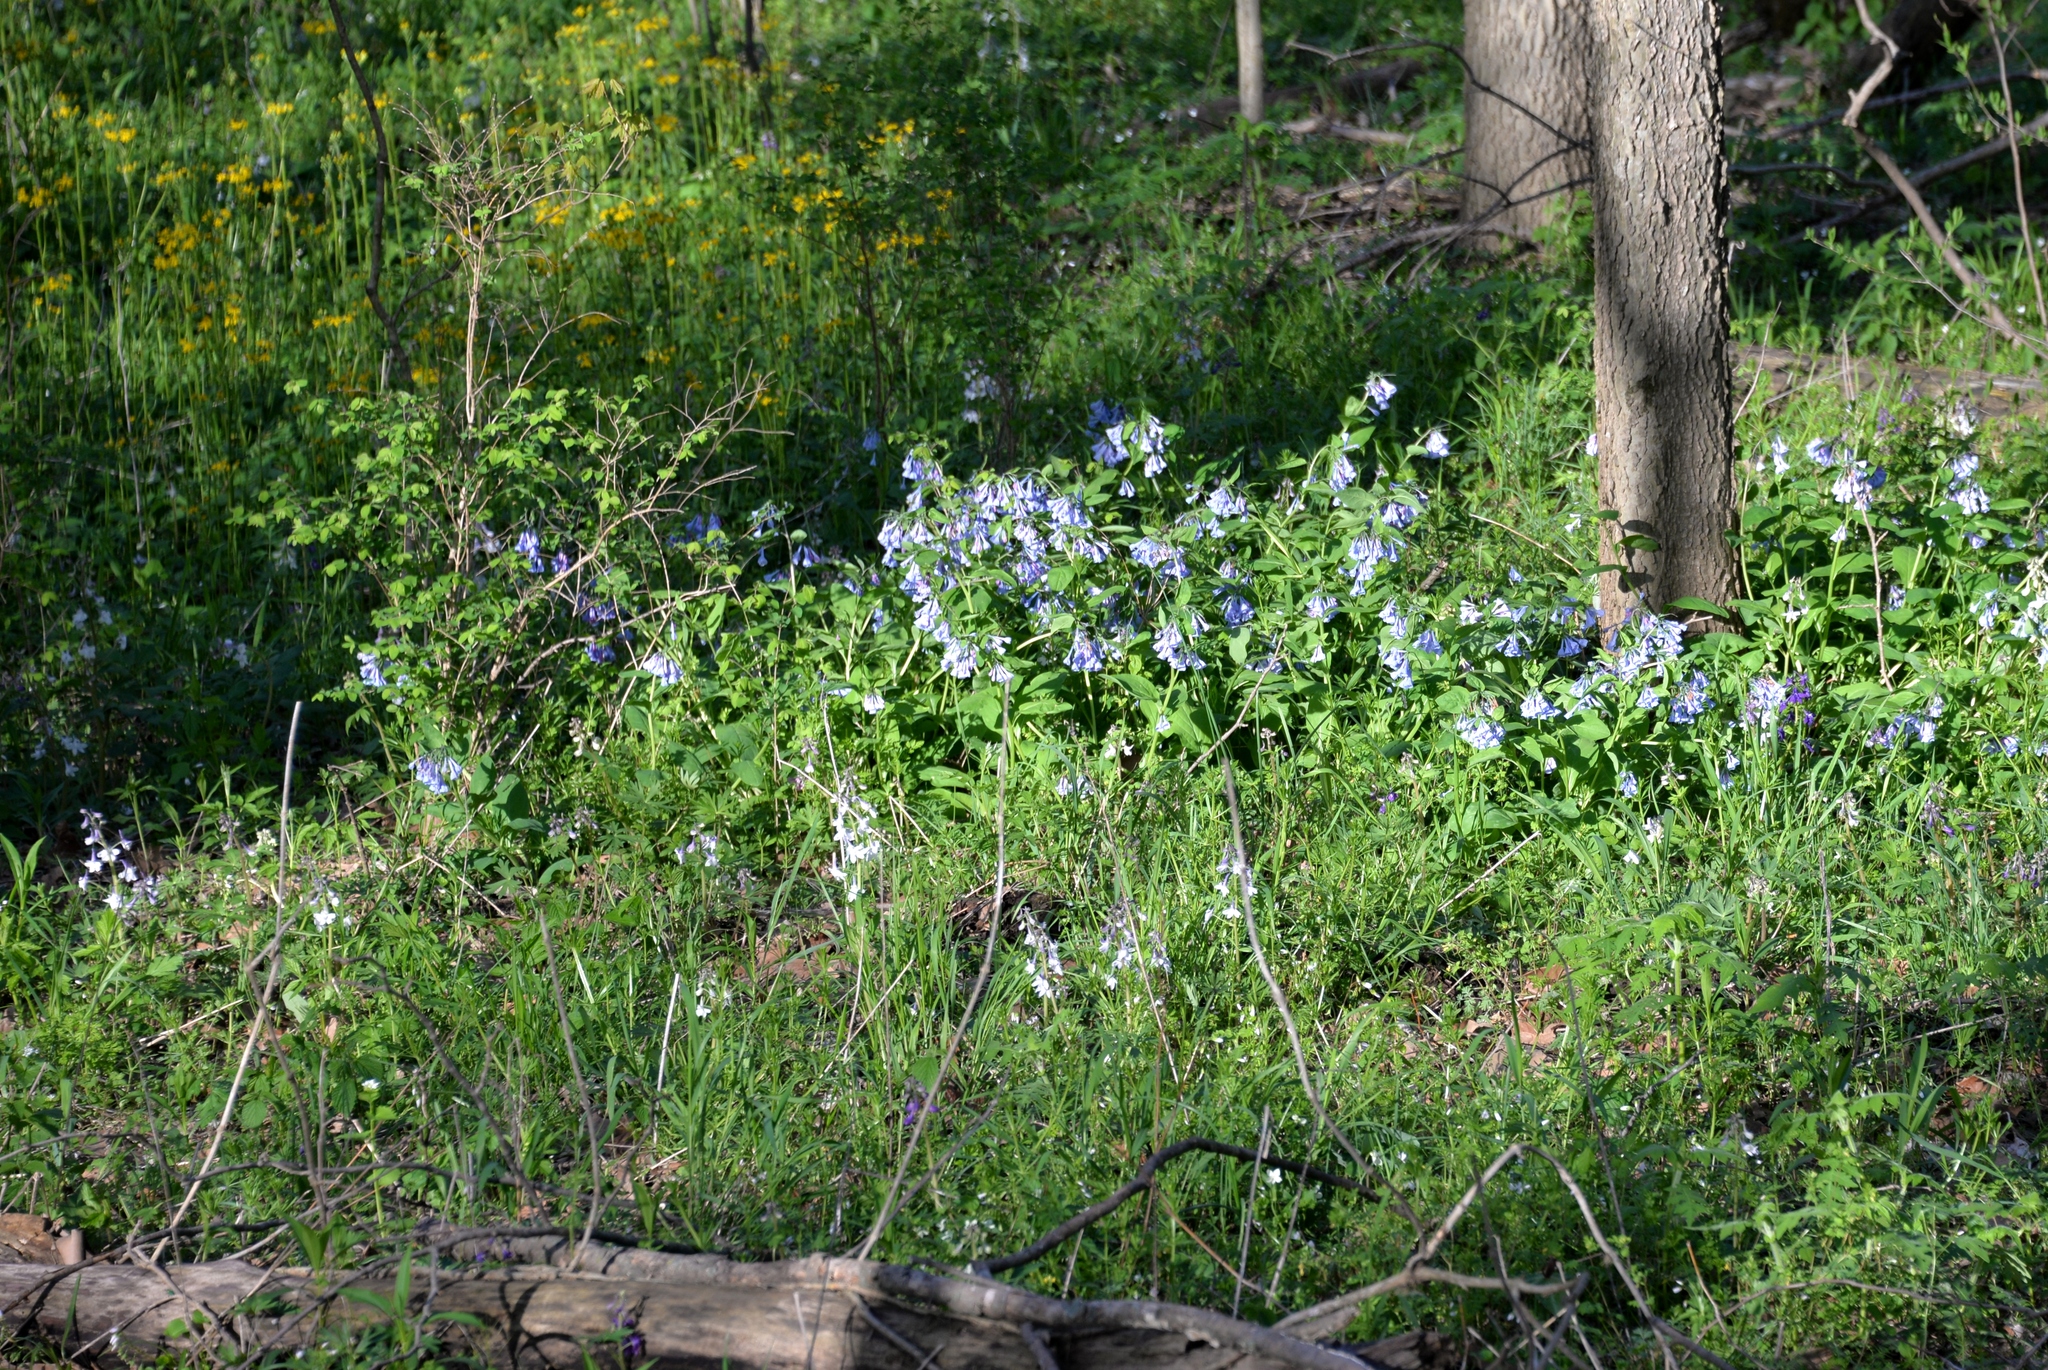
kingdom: Plantae
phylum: Tracheophyta
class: Magnoliopsida
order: Boraginales
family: Boraginaceae
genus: Mertensia
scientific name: Mertensia virginica
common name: Virginia bluebells
